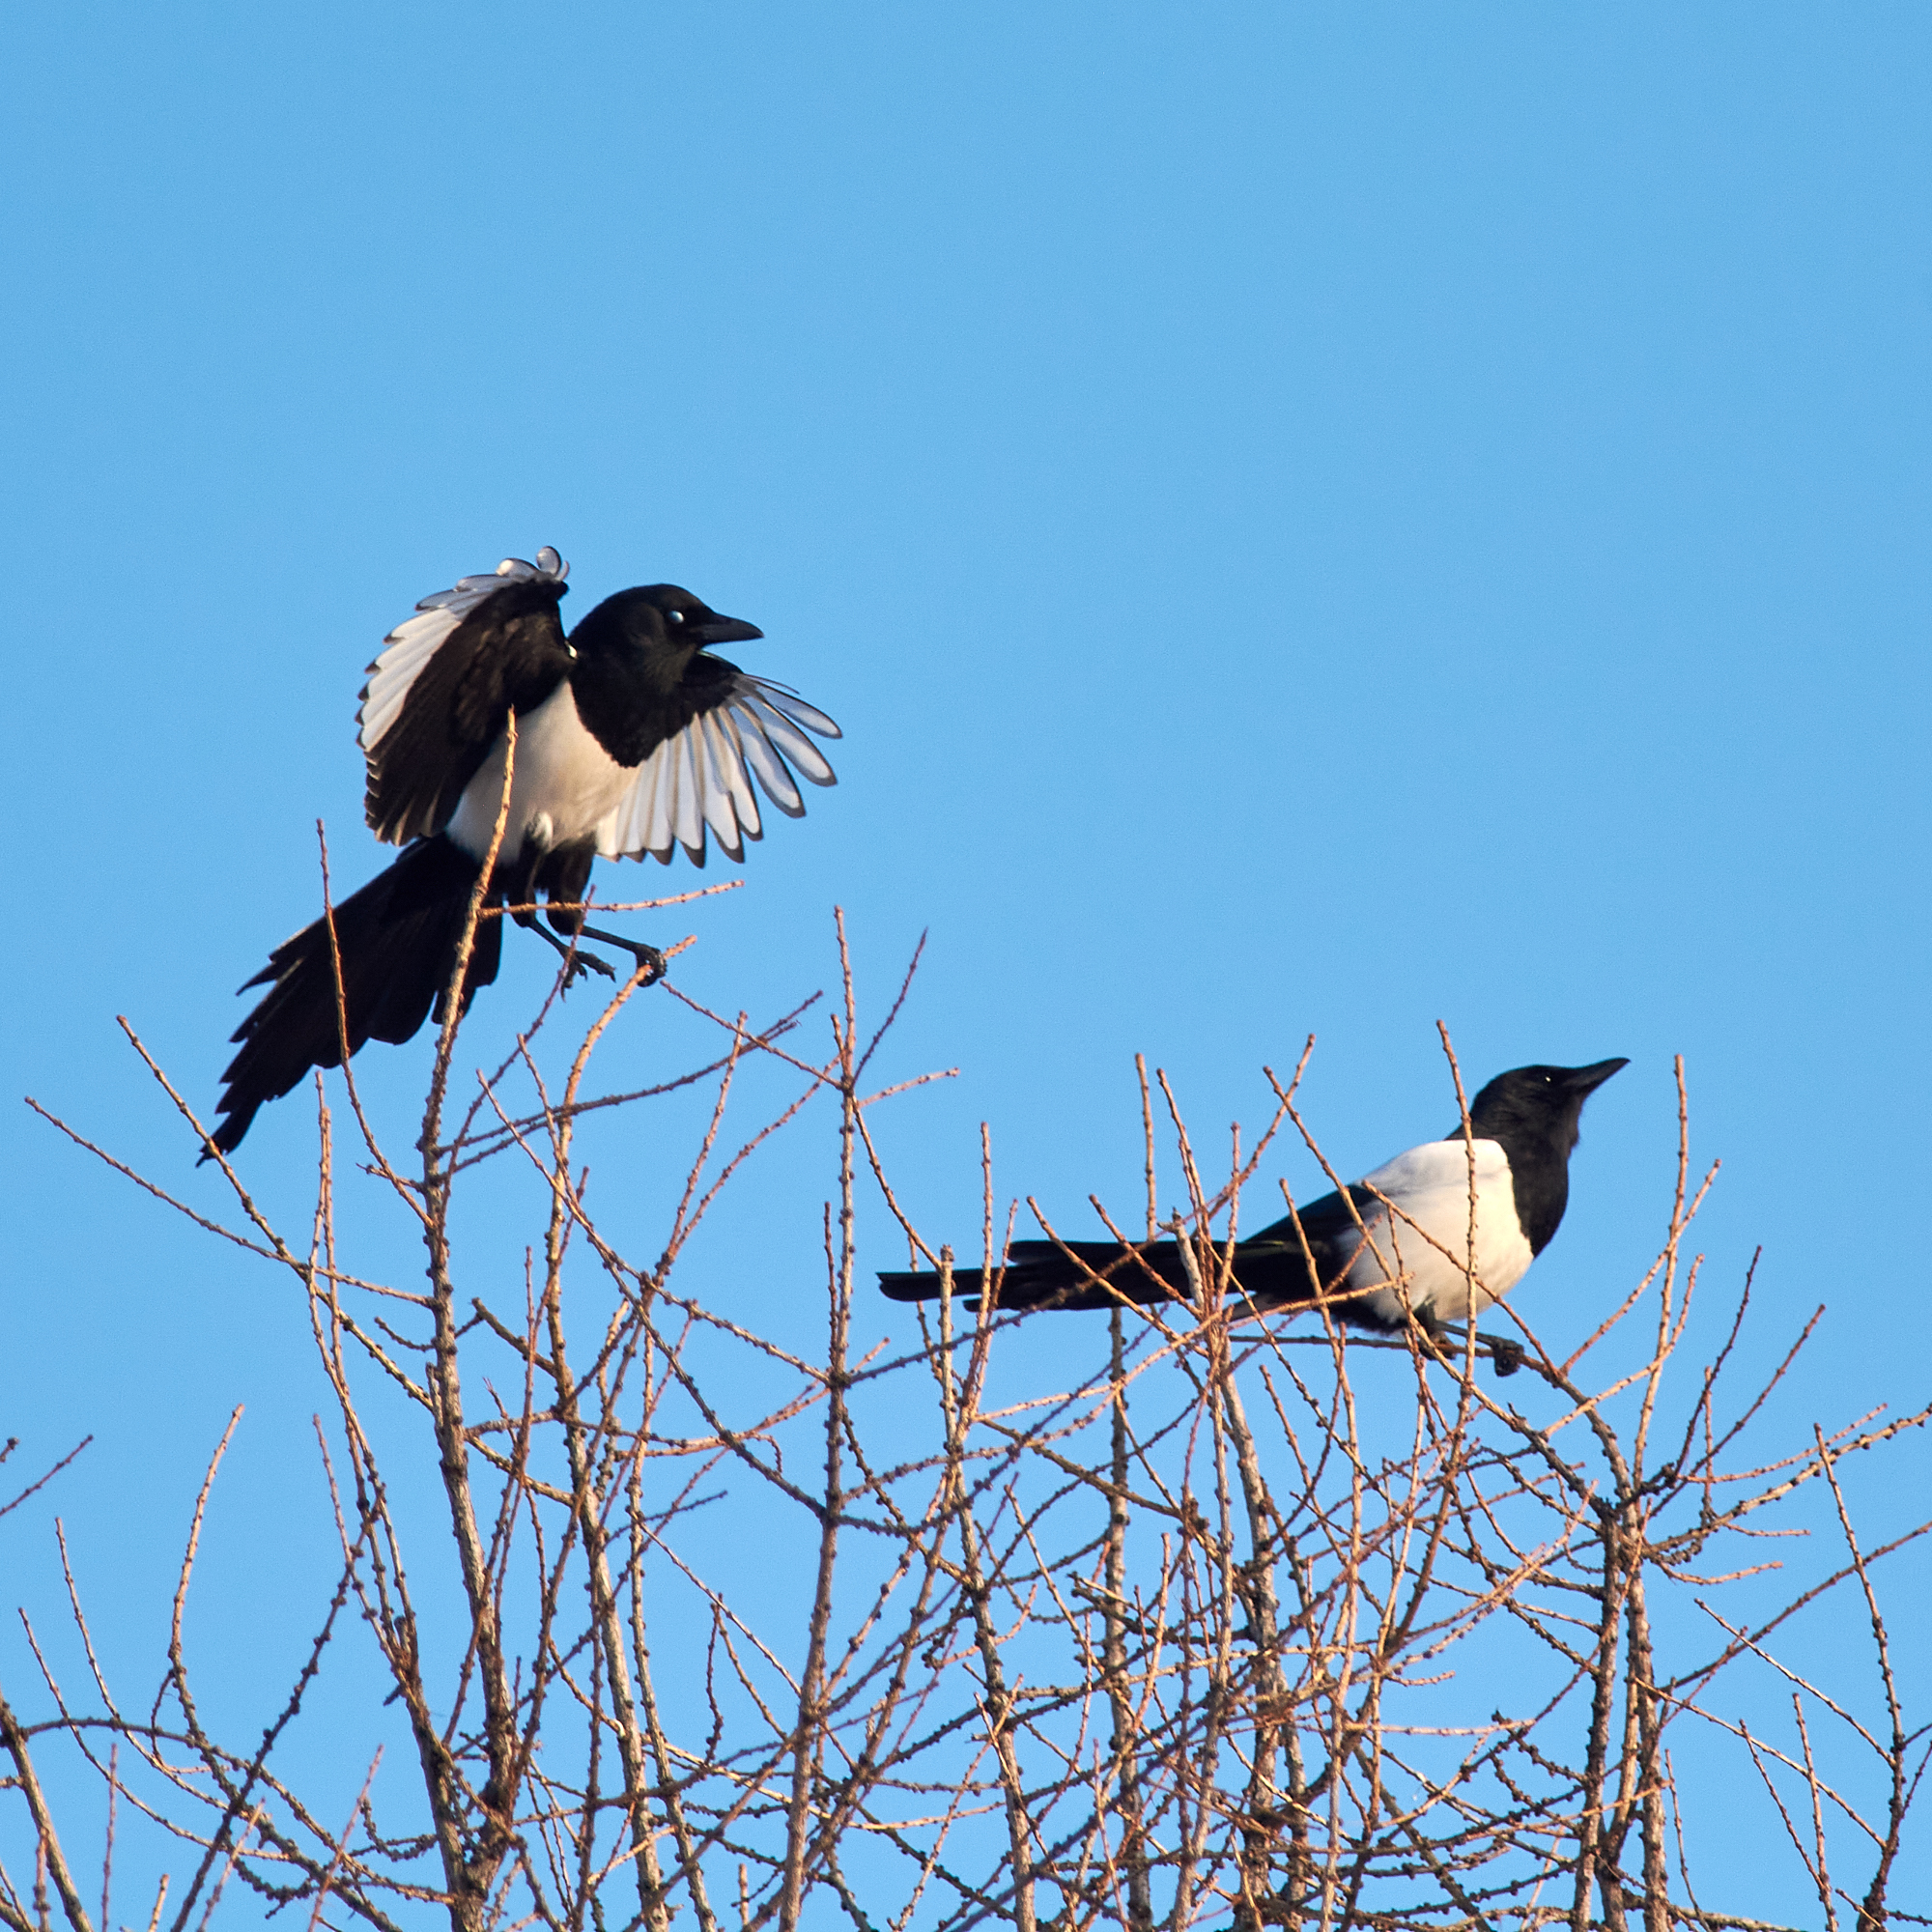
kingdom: Animalia
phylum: Chordata
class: Aves
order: Passeriformes
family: Corvidae
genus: Pica
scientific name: Pica pica
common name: Eurasian magpie
